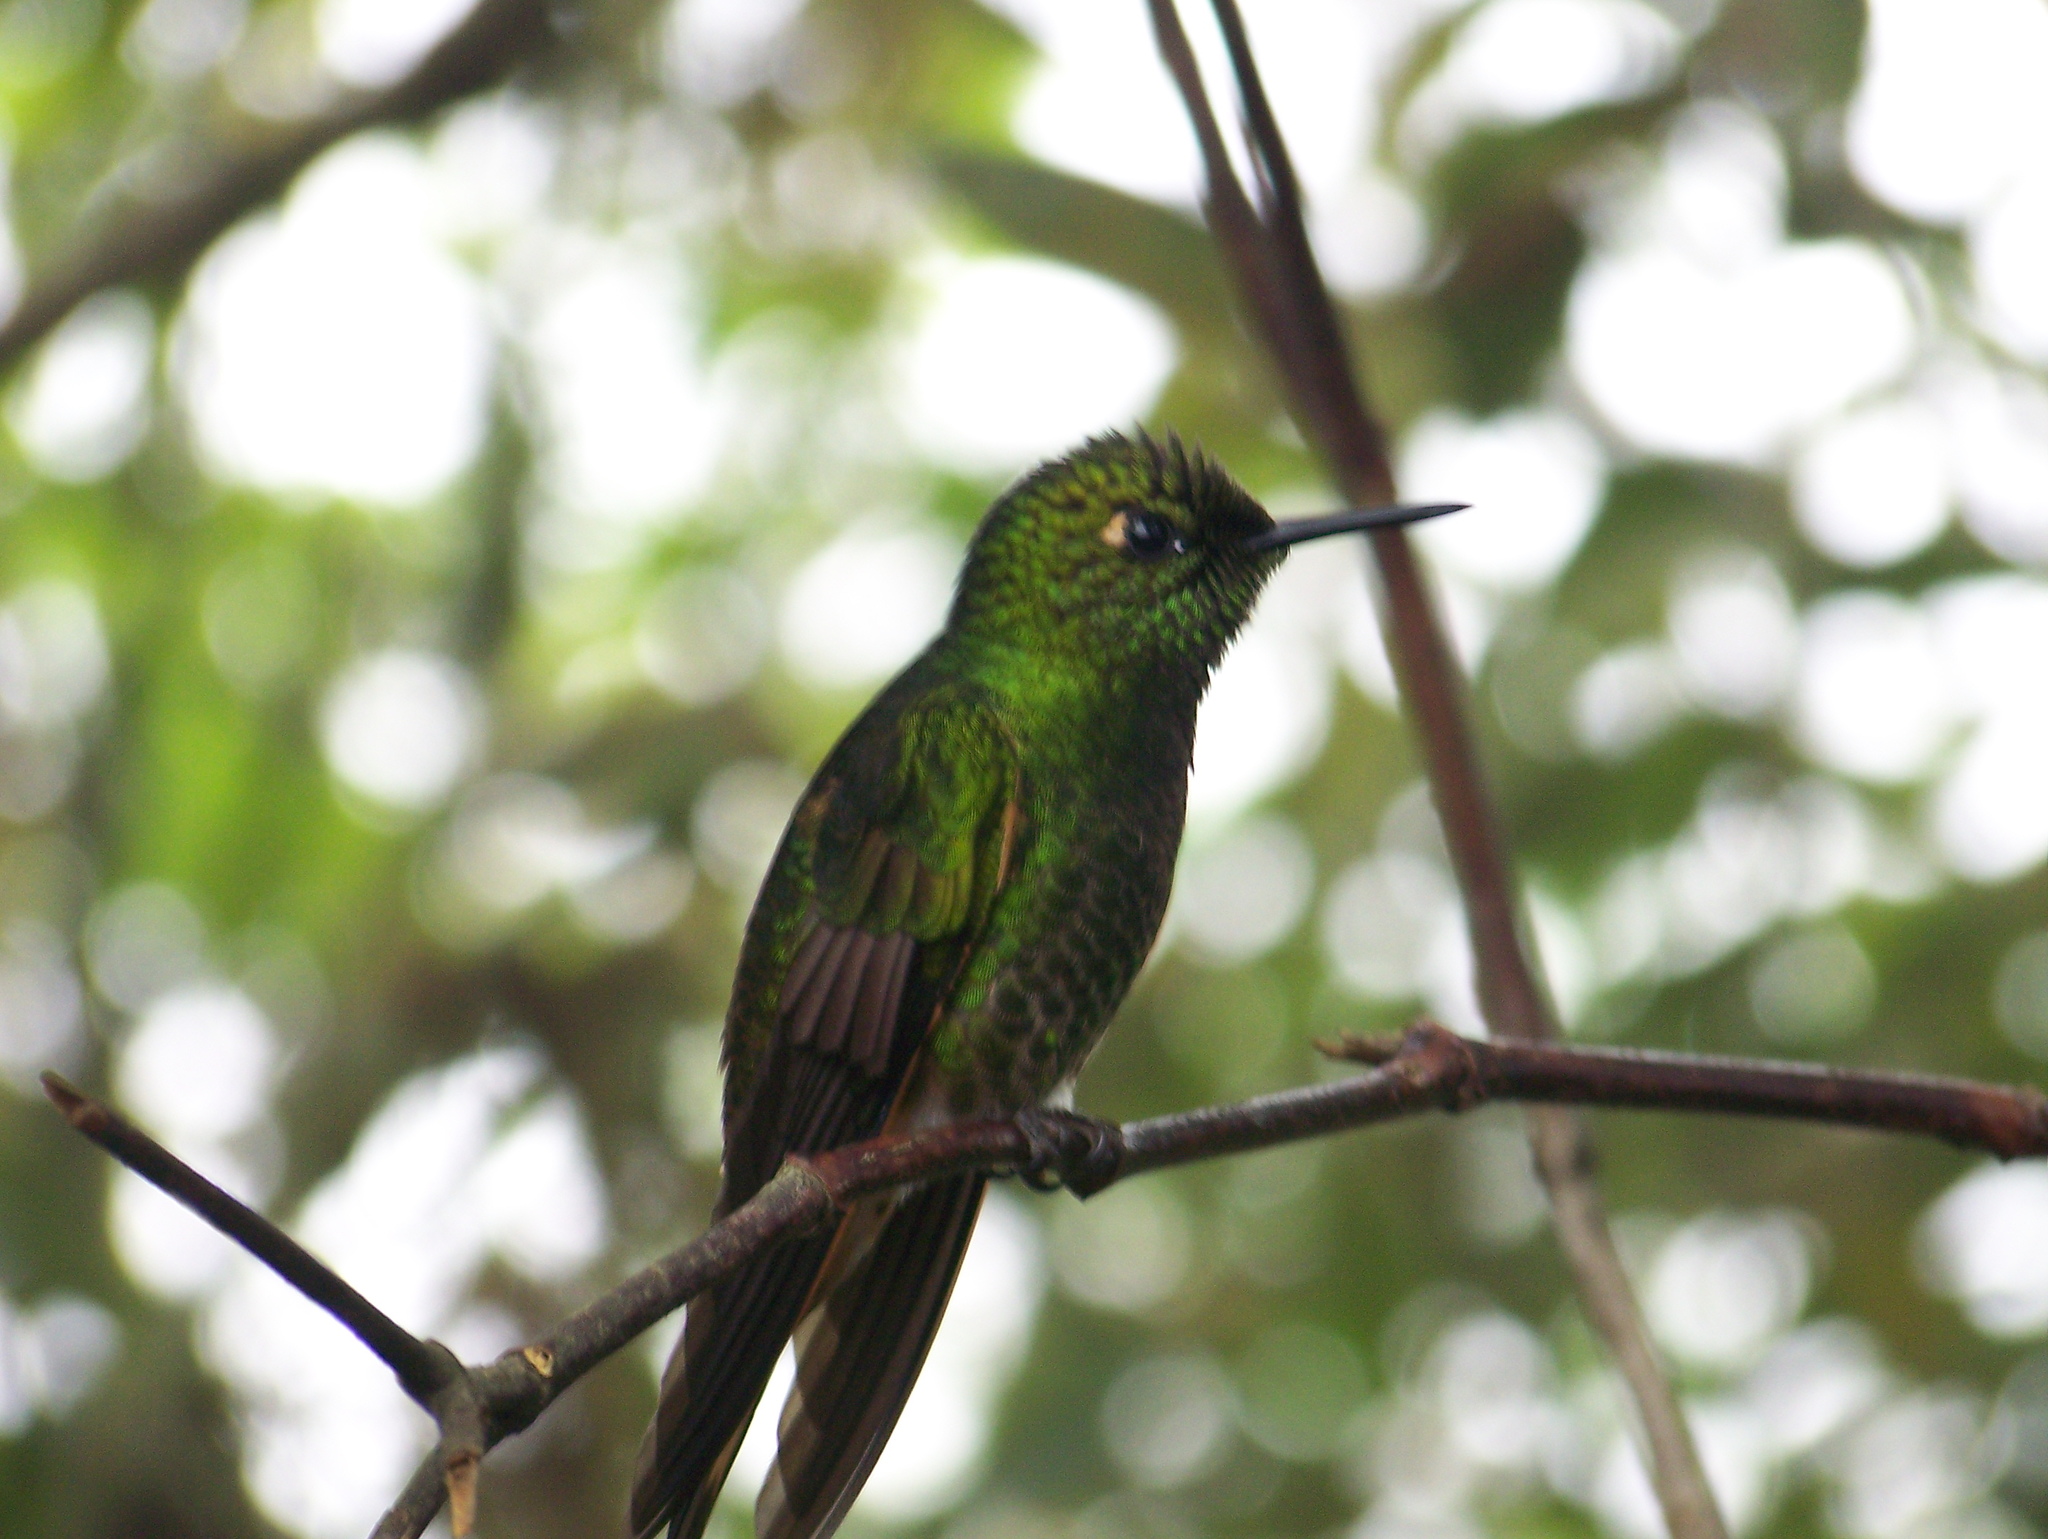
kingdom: Animalia
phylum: Chordata
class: Aves
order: Apodiformes
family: Trochilidae
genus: Boissonneaua
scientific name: Boissonneaua flavescens
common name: Buff-tailed coronet
